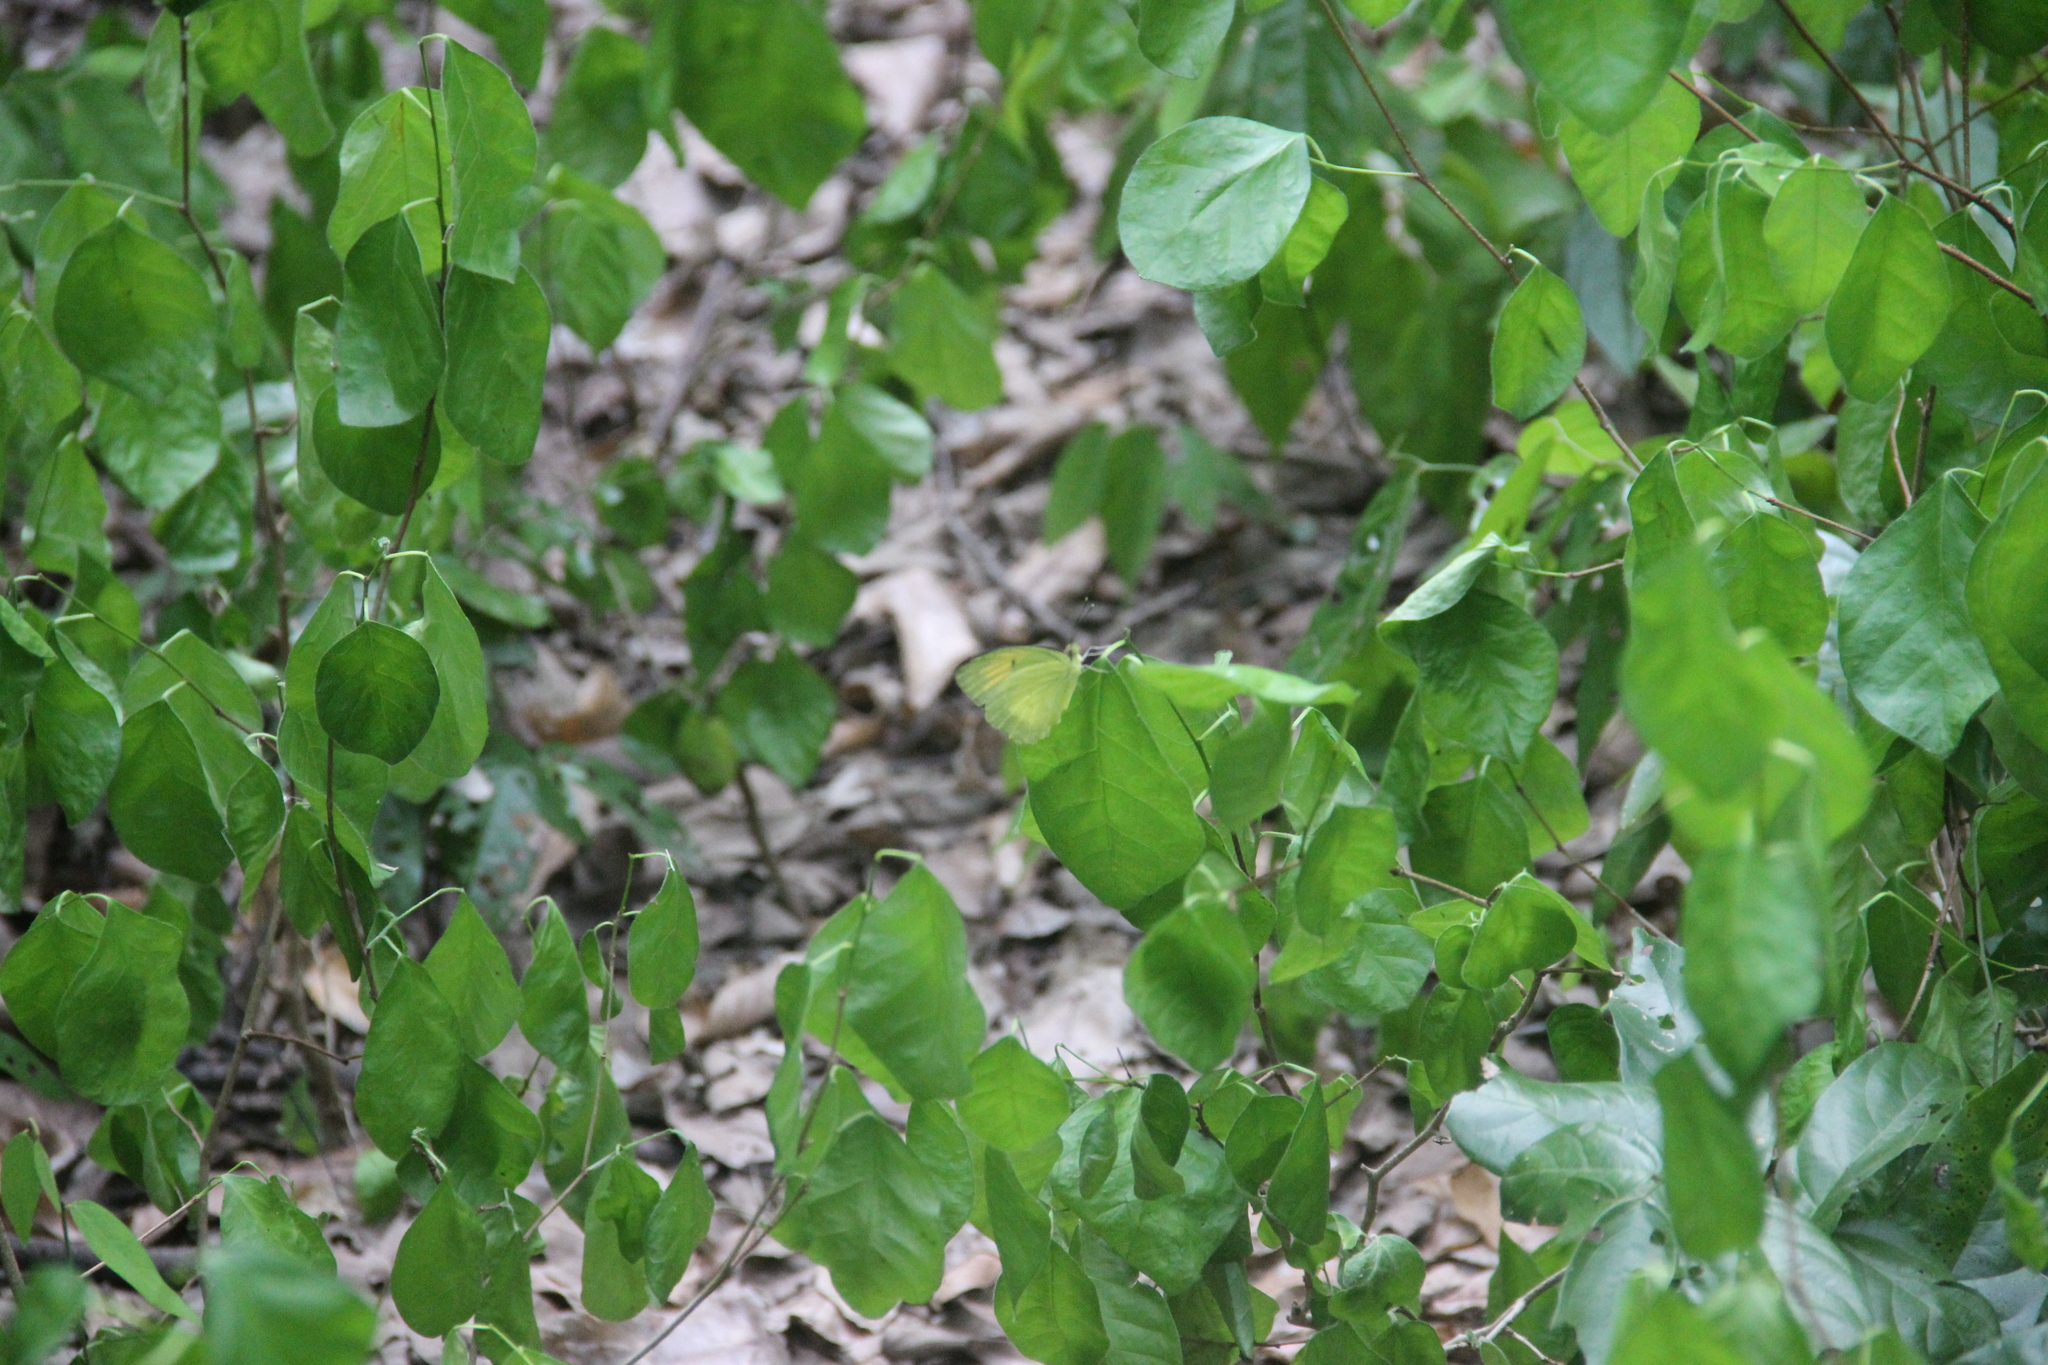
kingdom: Animalia
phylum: Arthropoda
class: Insecta
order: Lepidoptera
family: Pieridae
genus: Ixias
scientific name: Ixias pyrene
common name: Yellow orange tip
